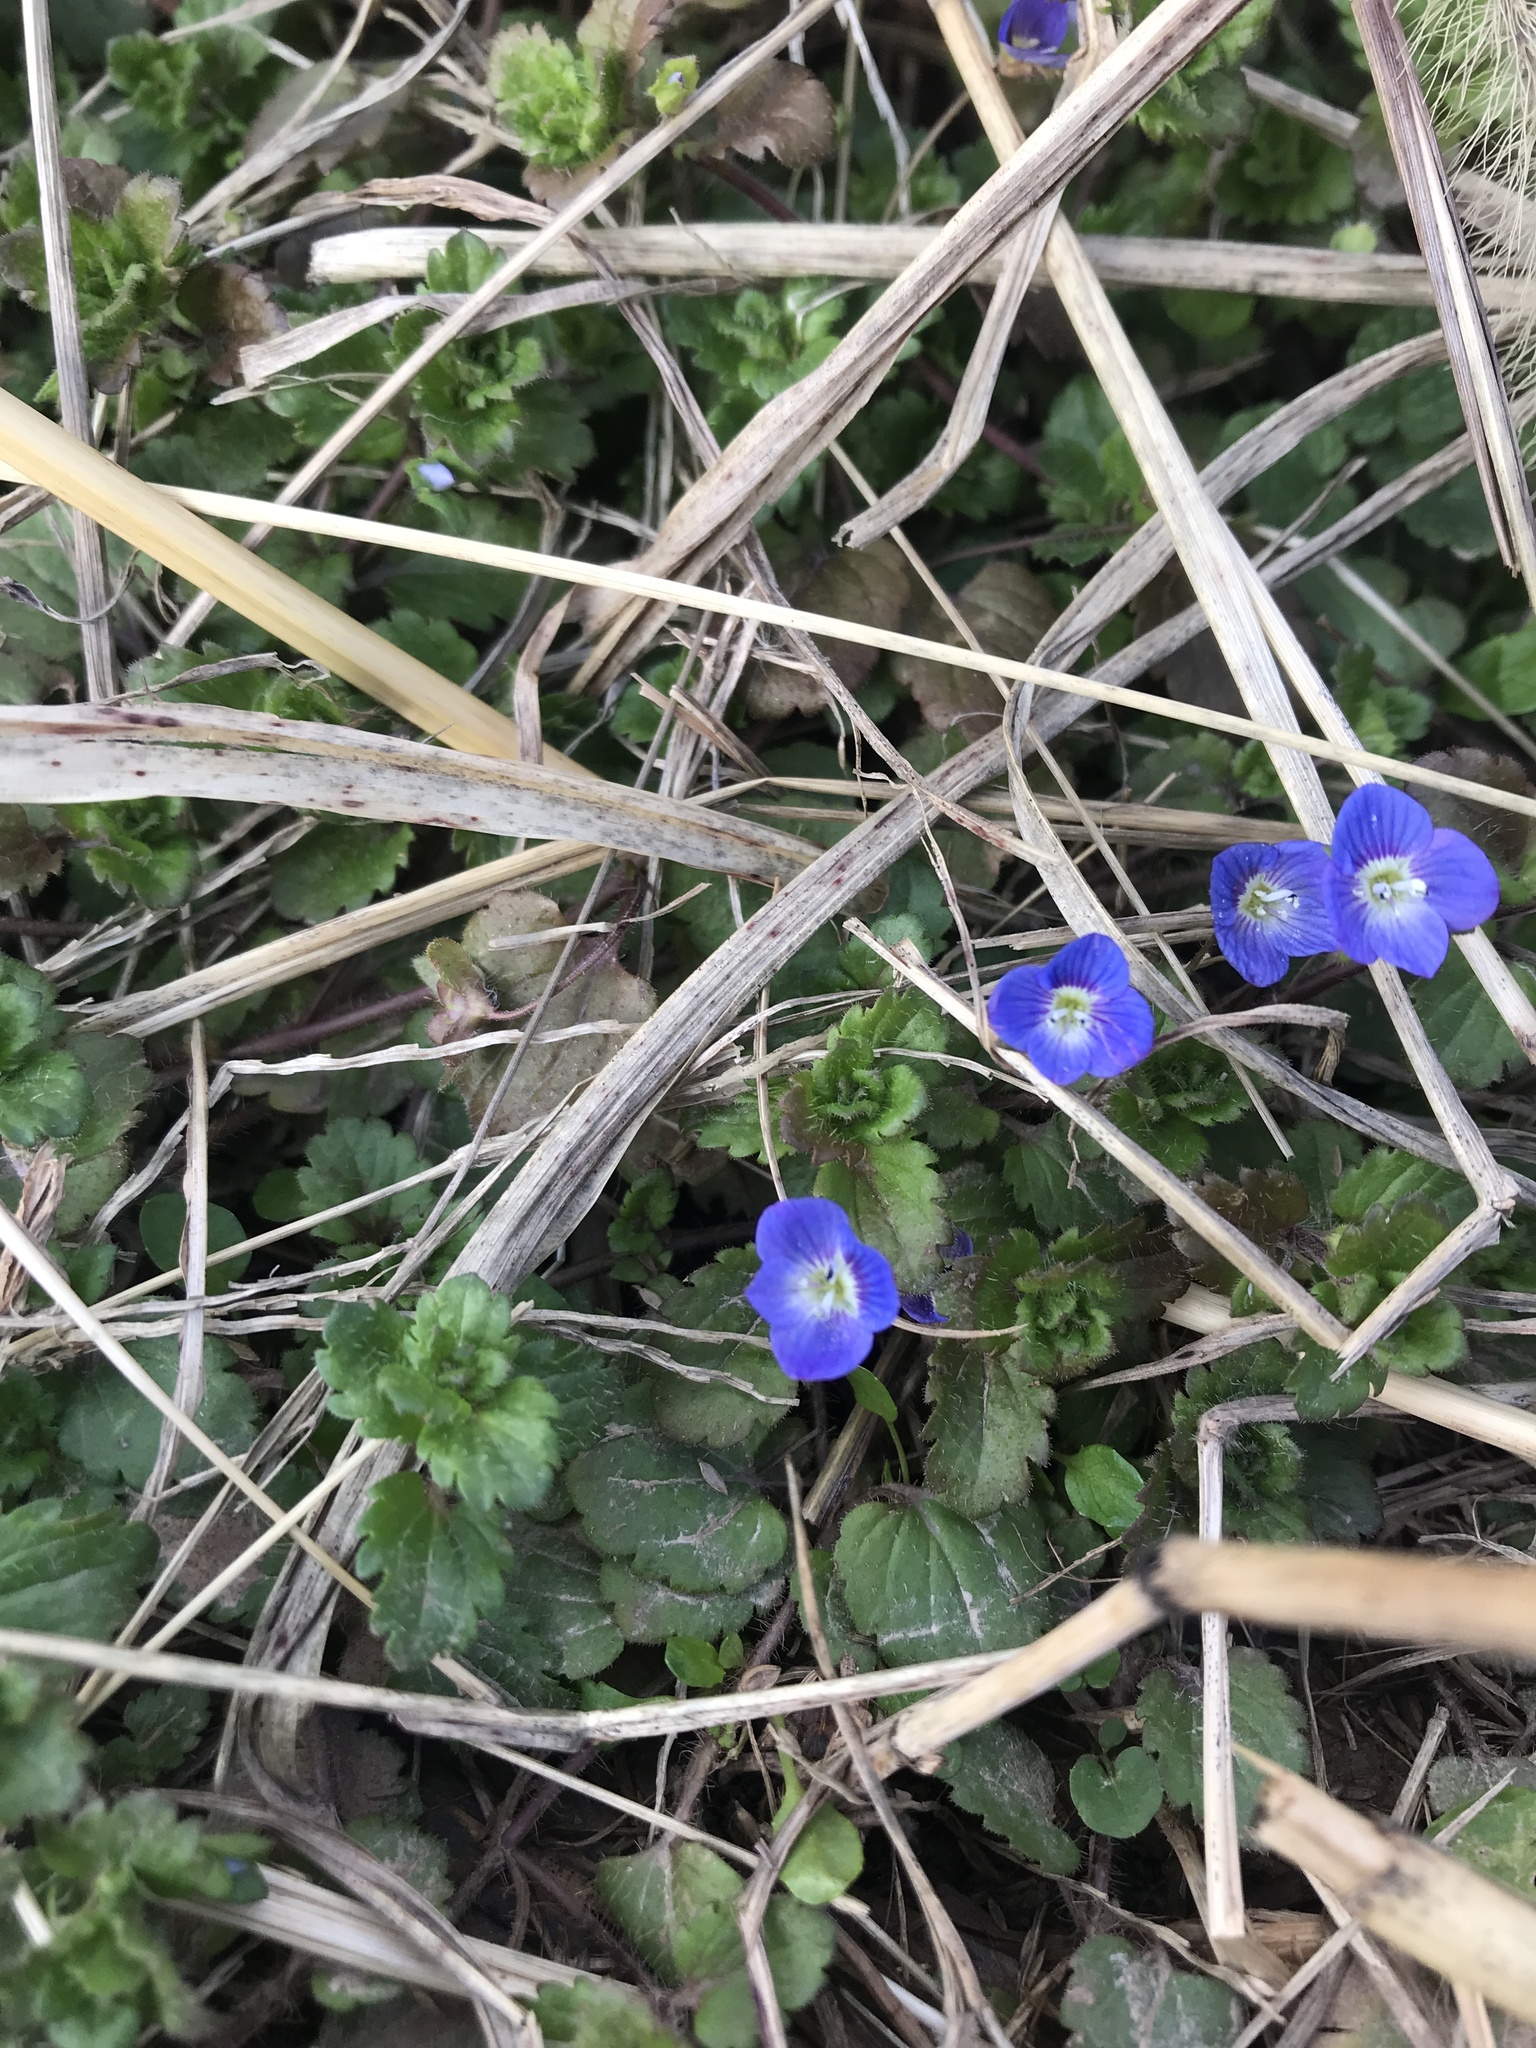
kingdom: Plantae
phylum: Tracheophyta
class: Magnoliopsida
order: Lamiales
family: Plantaginaceae
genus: Veronica
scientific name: Veronica persica
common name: Common field-speedwell
